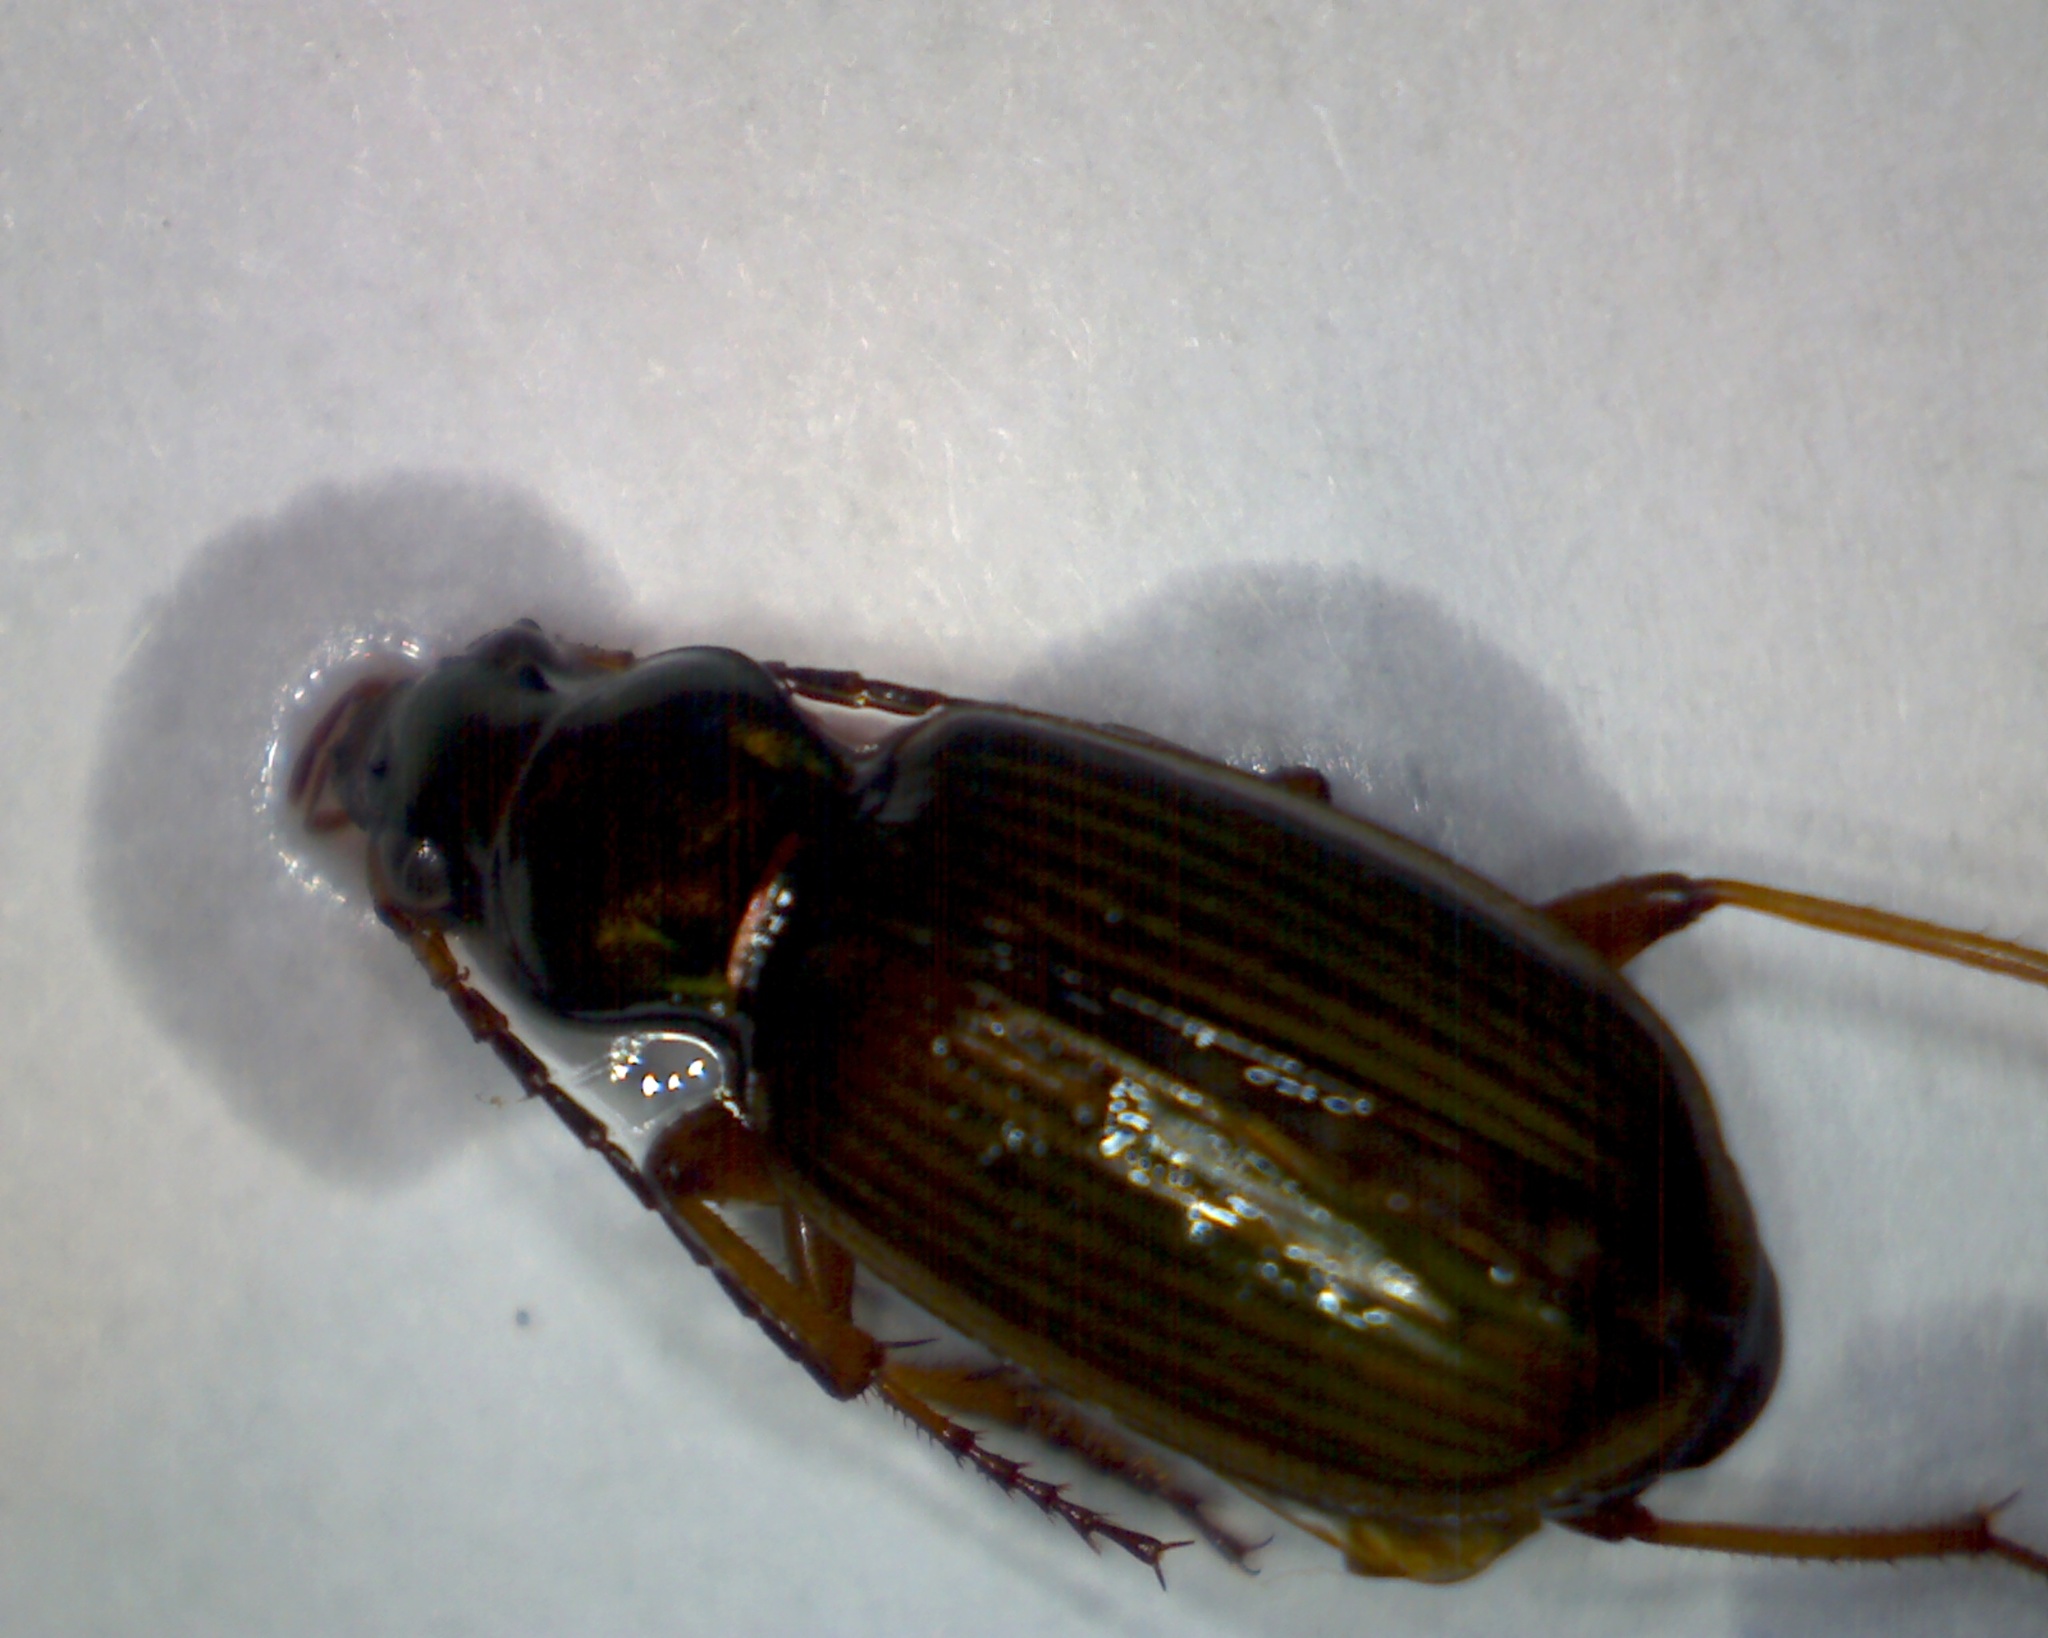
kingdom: Animalia
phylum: Arthropoda
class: Insecta
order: Coleoptera
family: Carabidae
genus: Chlaenius
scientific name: Chlaenius spoliatus
